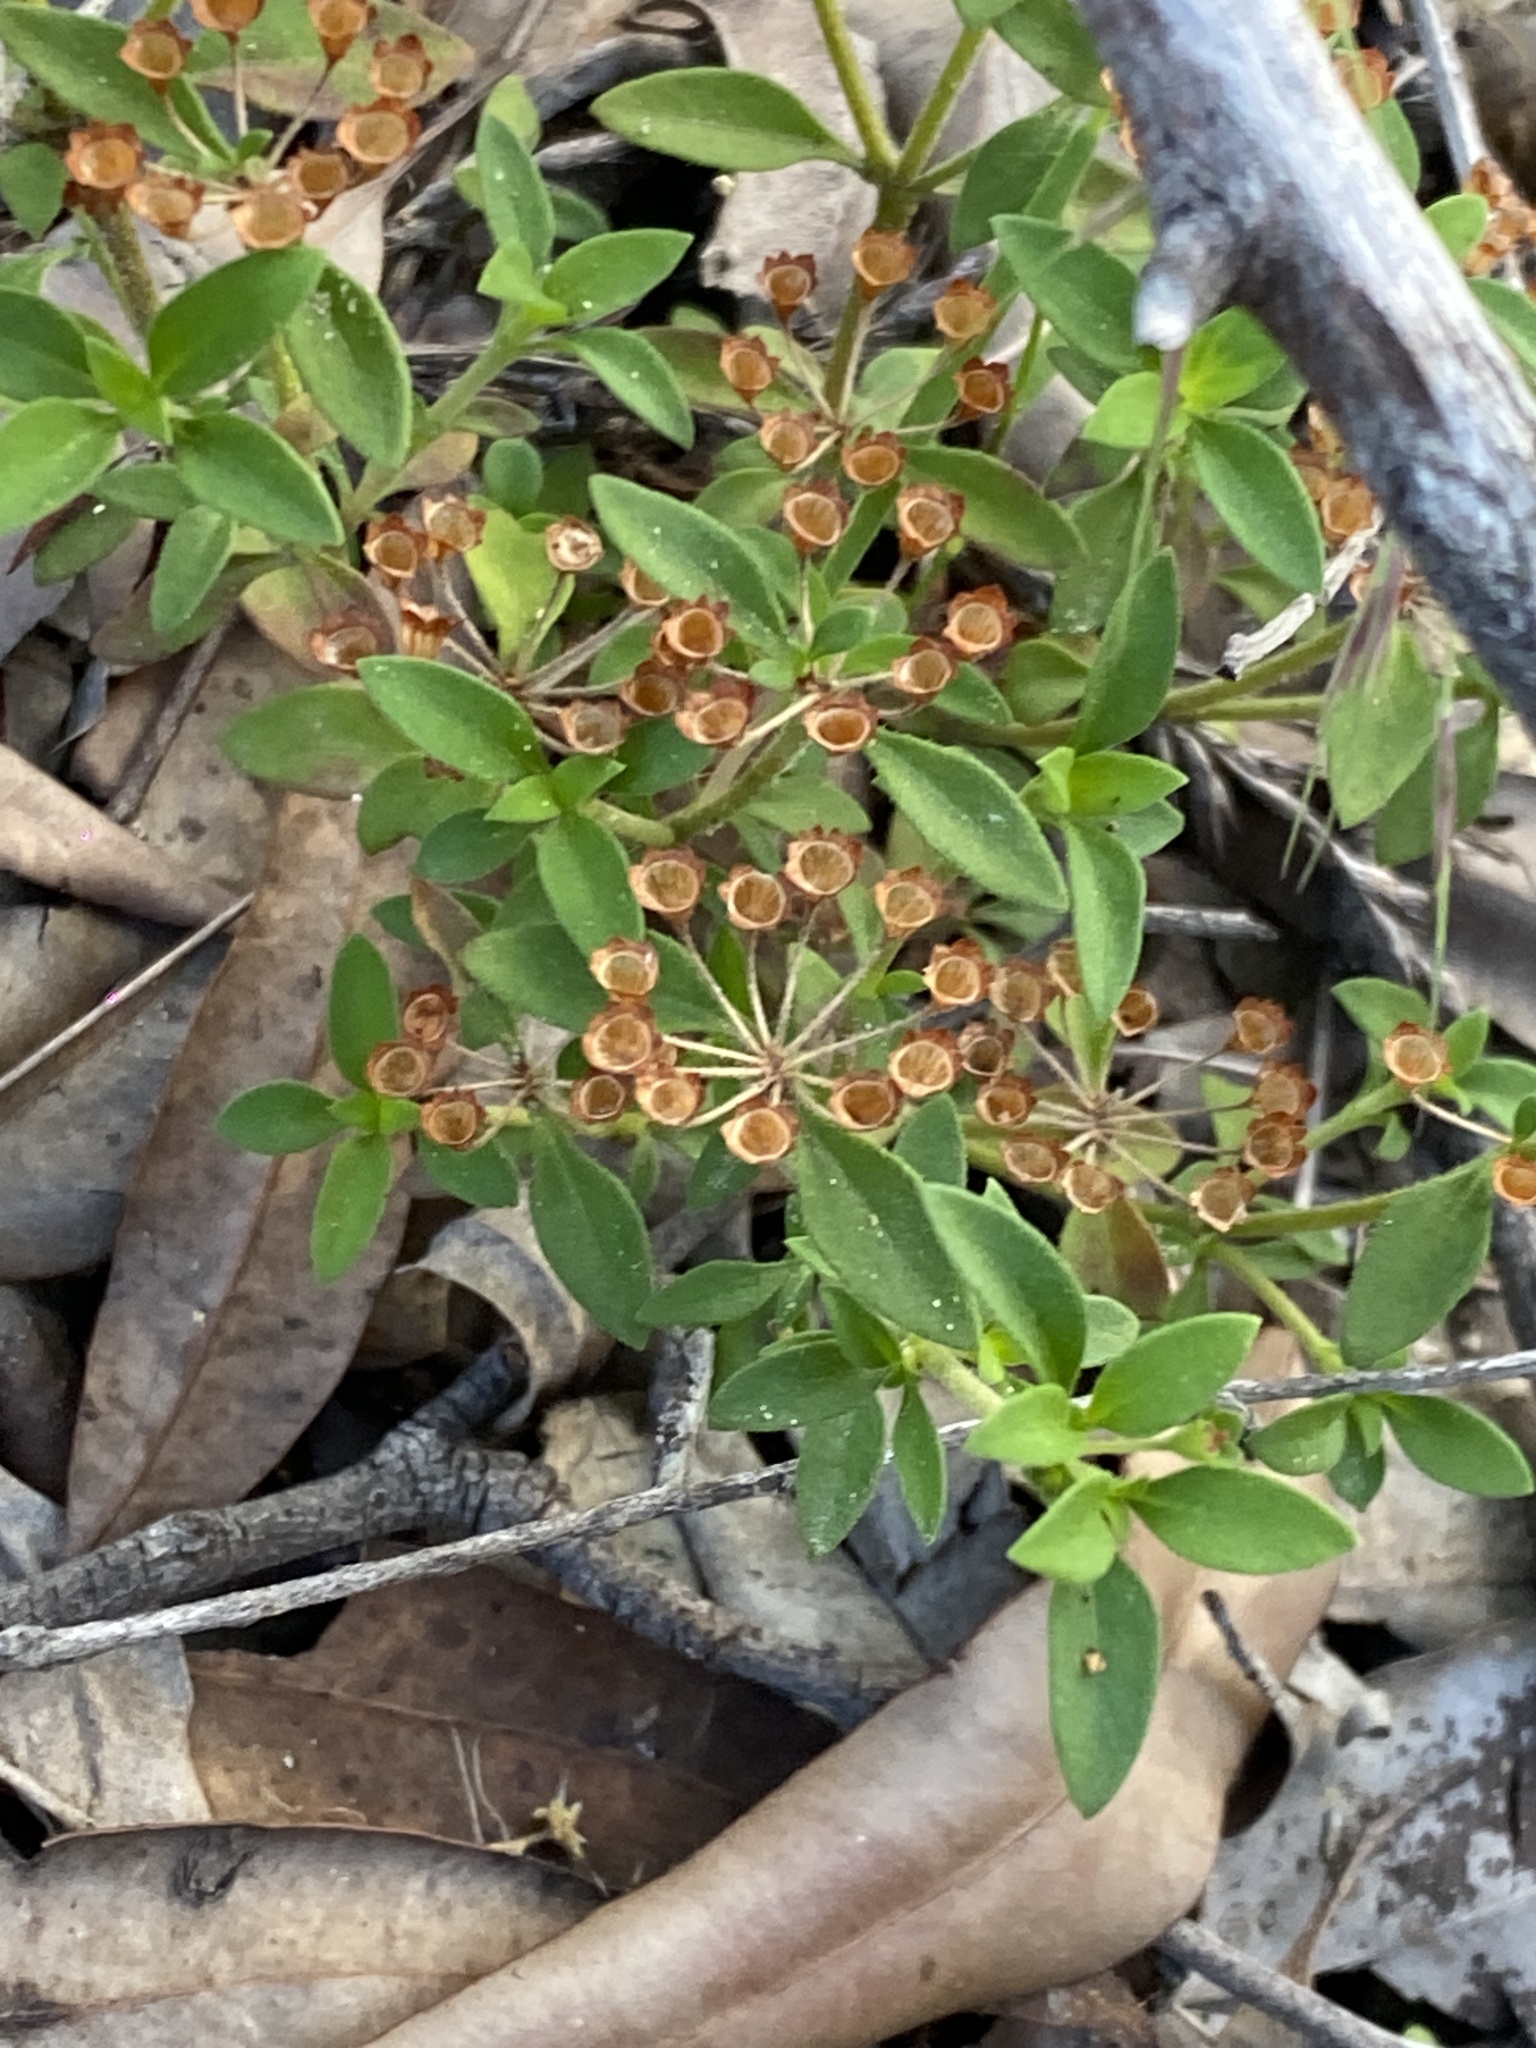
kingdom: Plantae
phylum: Tracheophyta
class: Magnoliopsida
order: Gentianales
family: Rubiaceae
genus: Pomax
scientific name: Pomax umbellata
